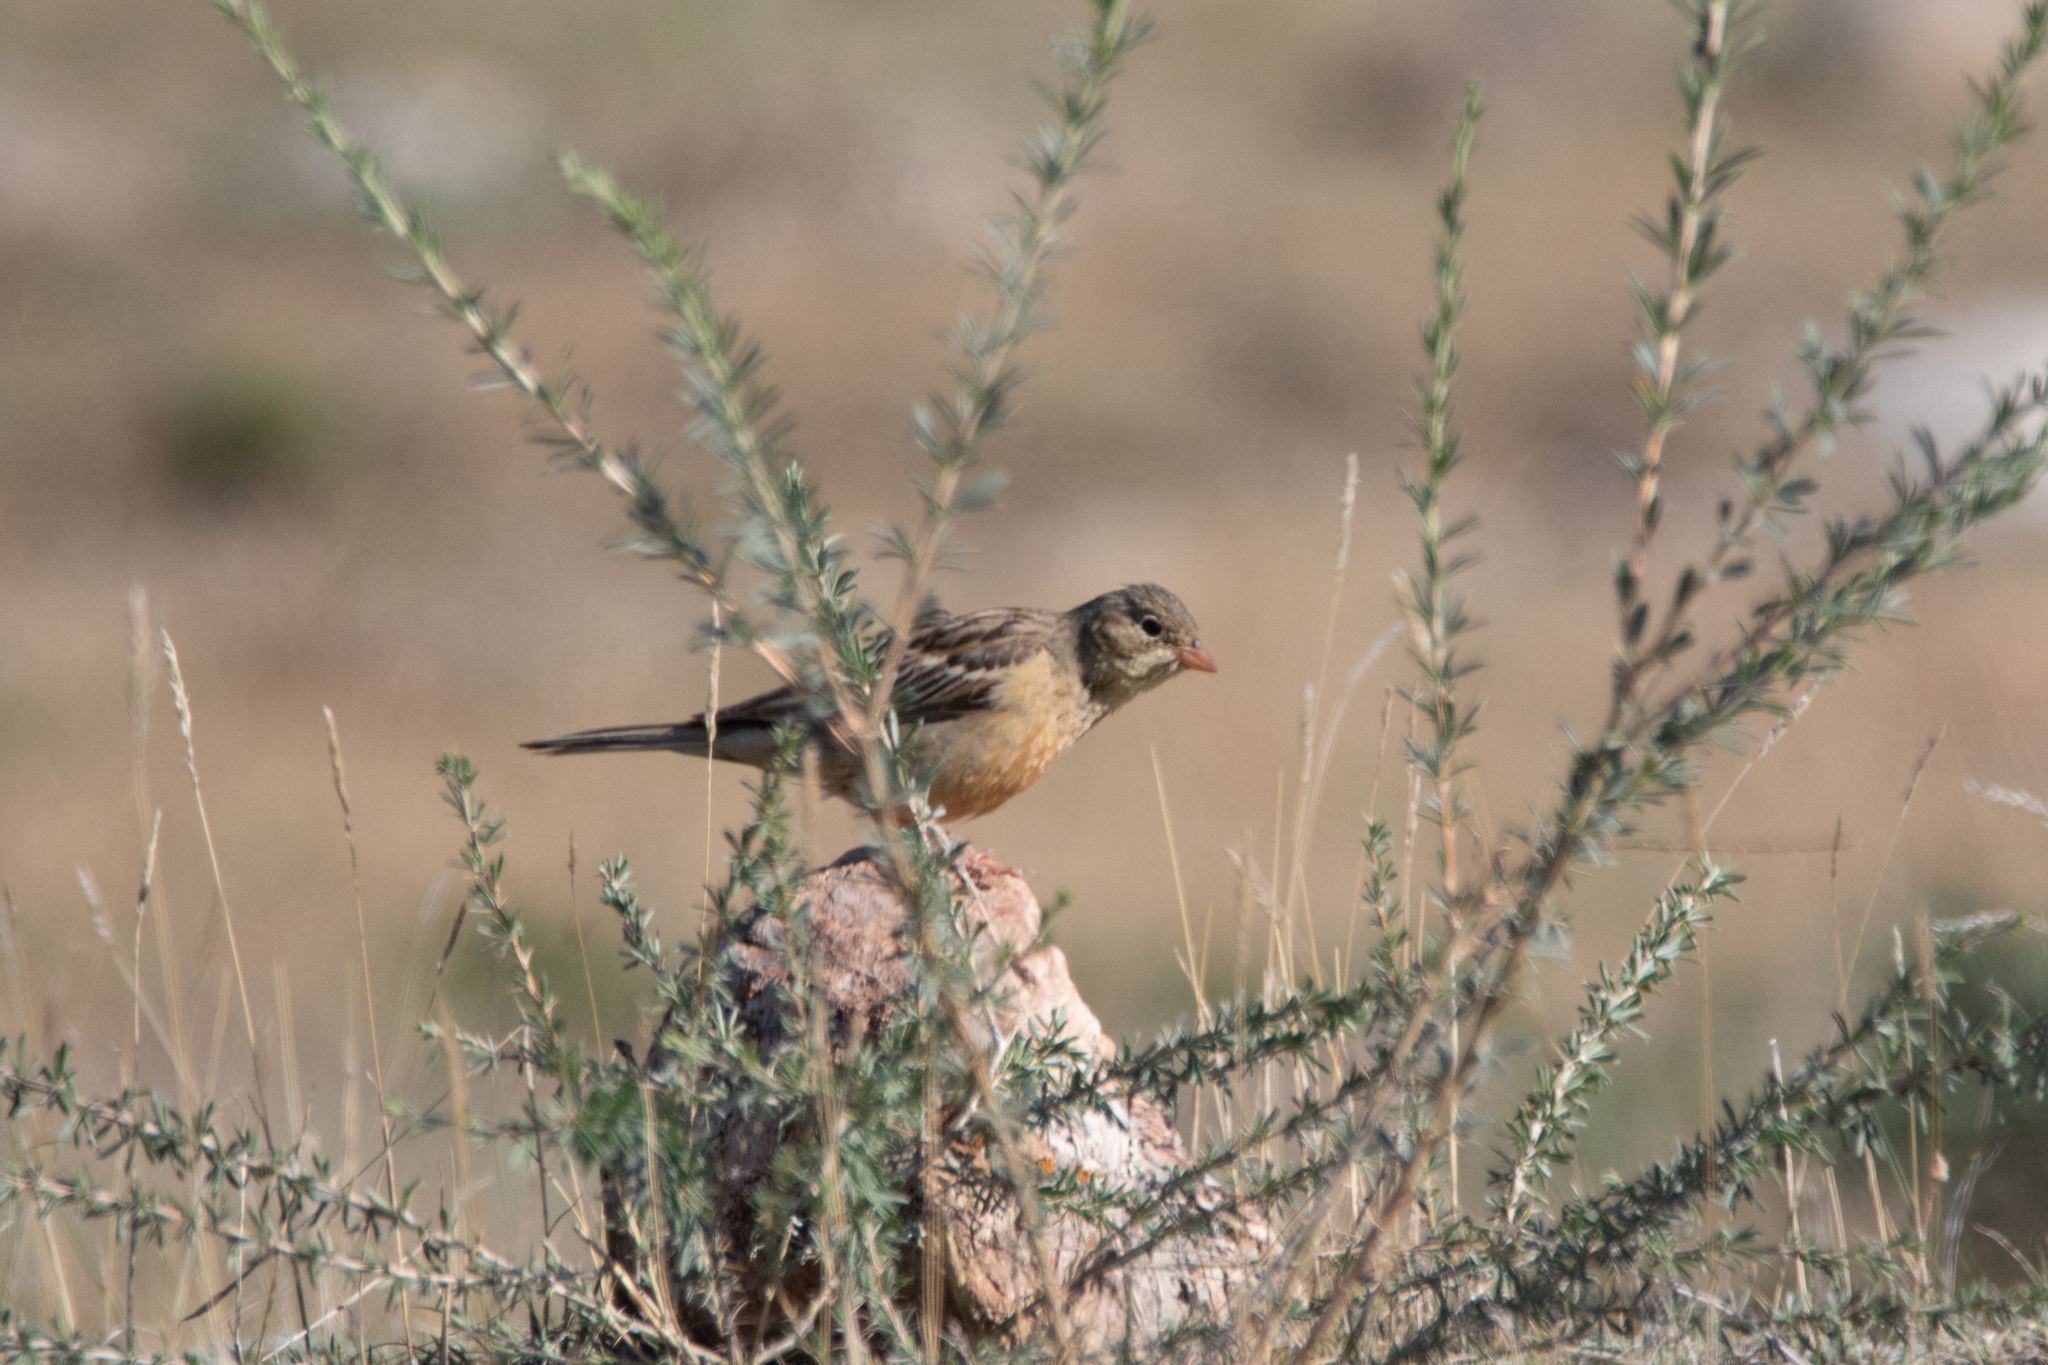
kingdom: Animalia
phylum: Chordata
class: Aves
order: Passeriformes
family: Emberizidae
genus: Emberiza
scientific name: Emberiza hortulana
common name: Ortolan bunting
